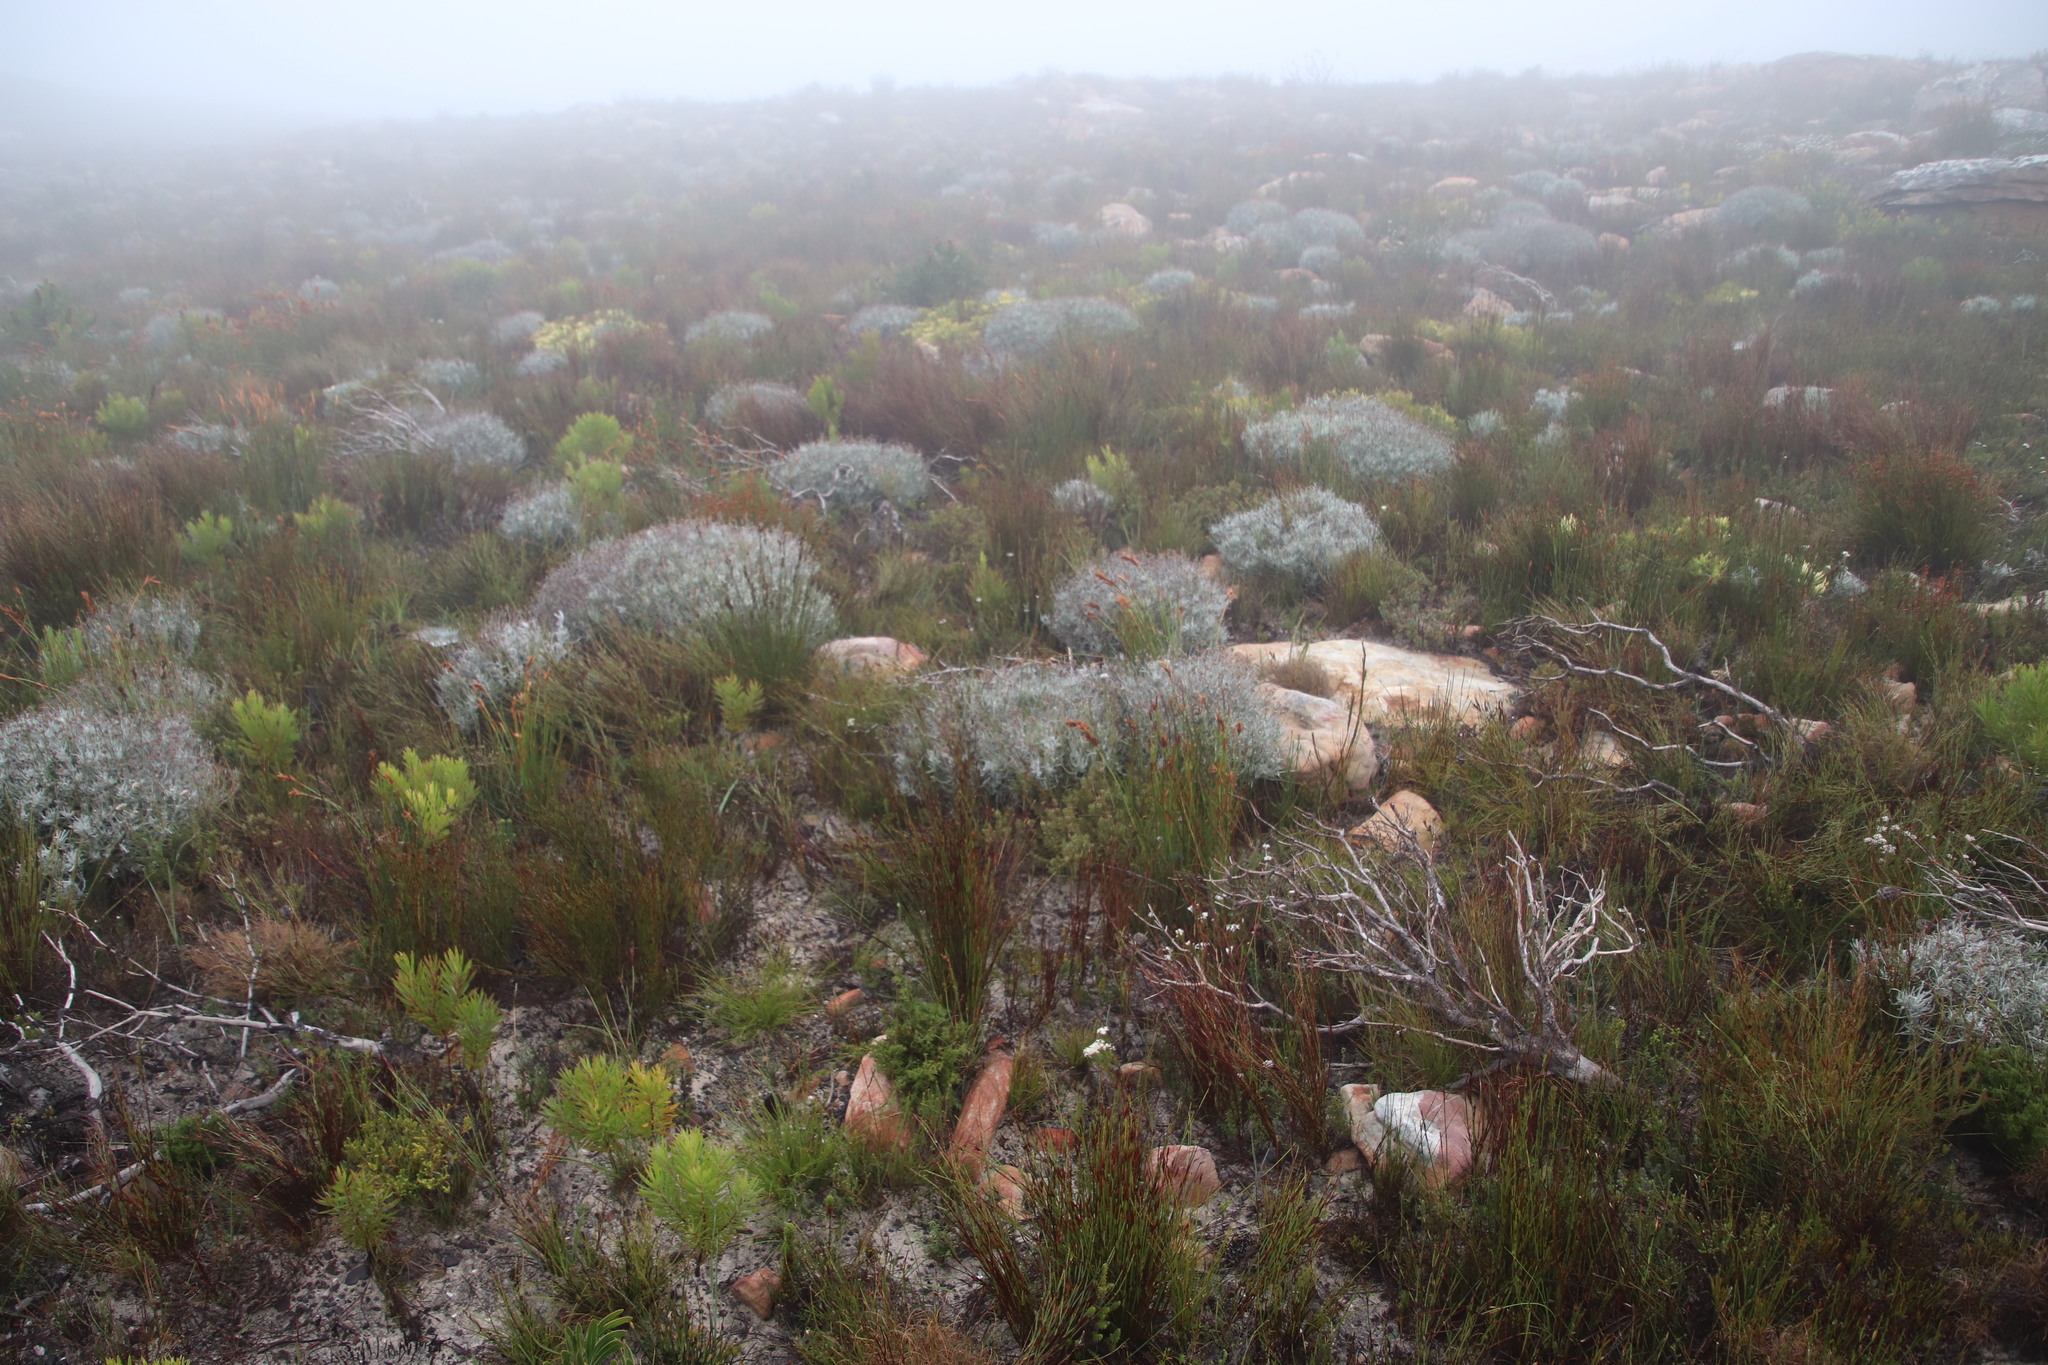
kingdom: Plantae
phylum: Tracheophyta
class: Magnoliopsida
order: Asterales
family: Asteraceae
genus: Syncarpha
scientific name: Syncarpha gnaphaloides
